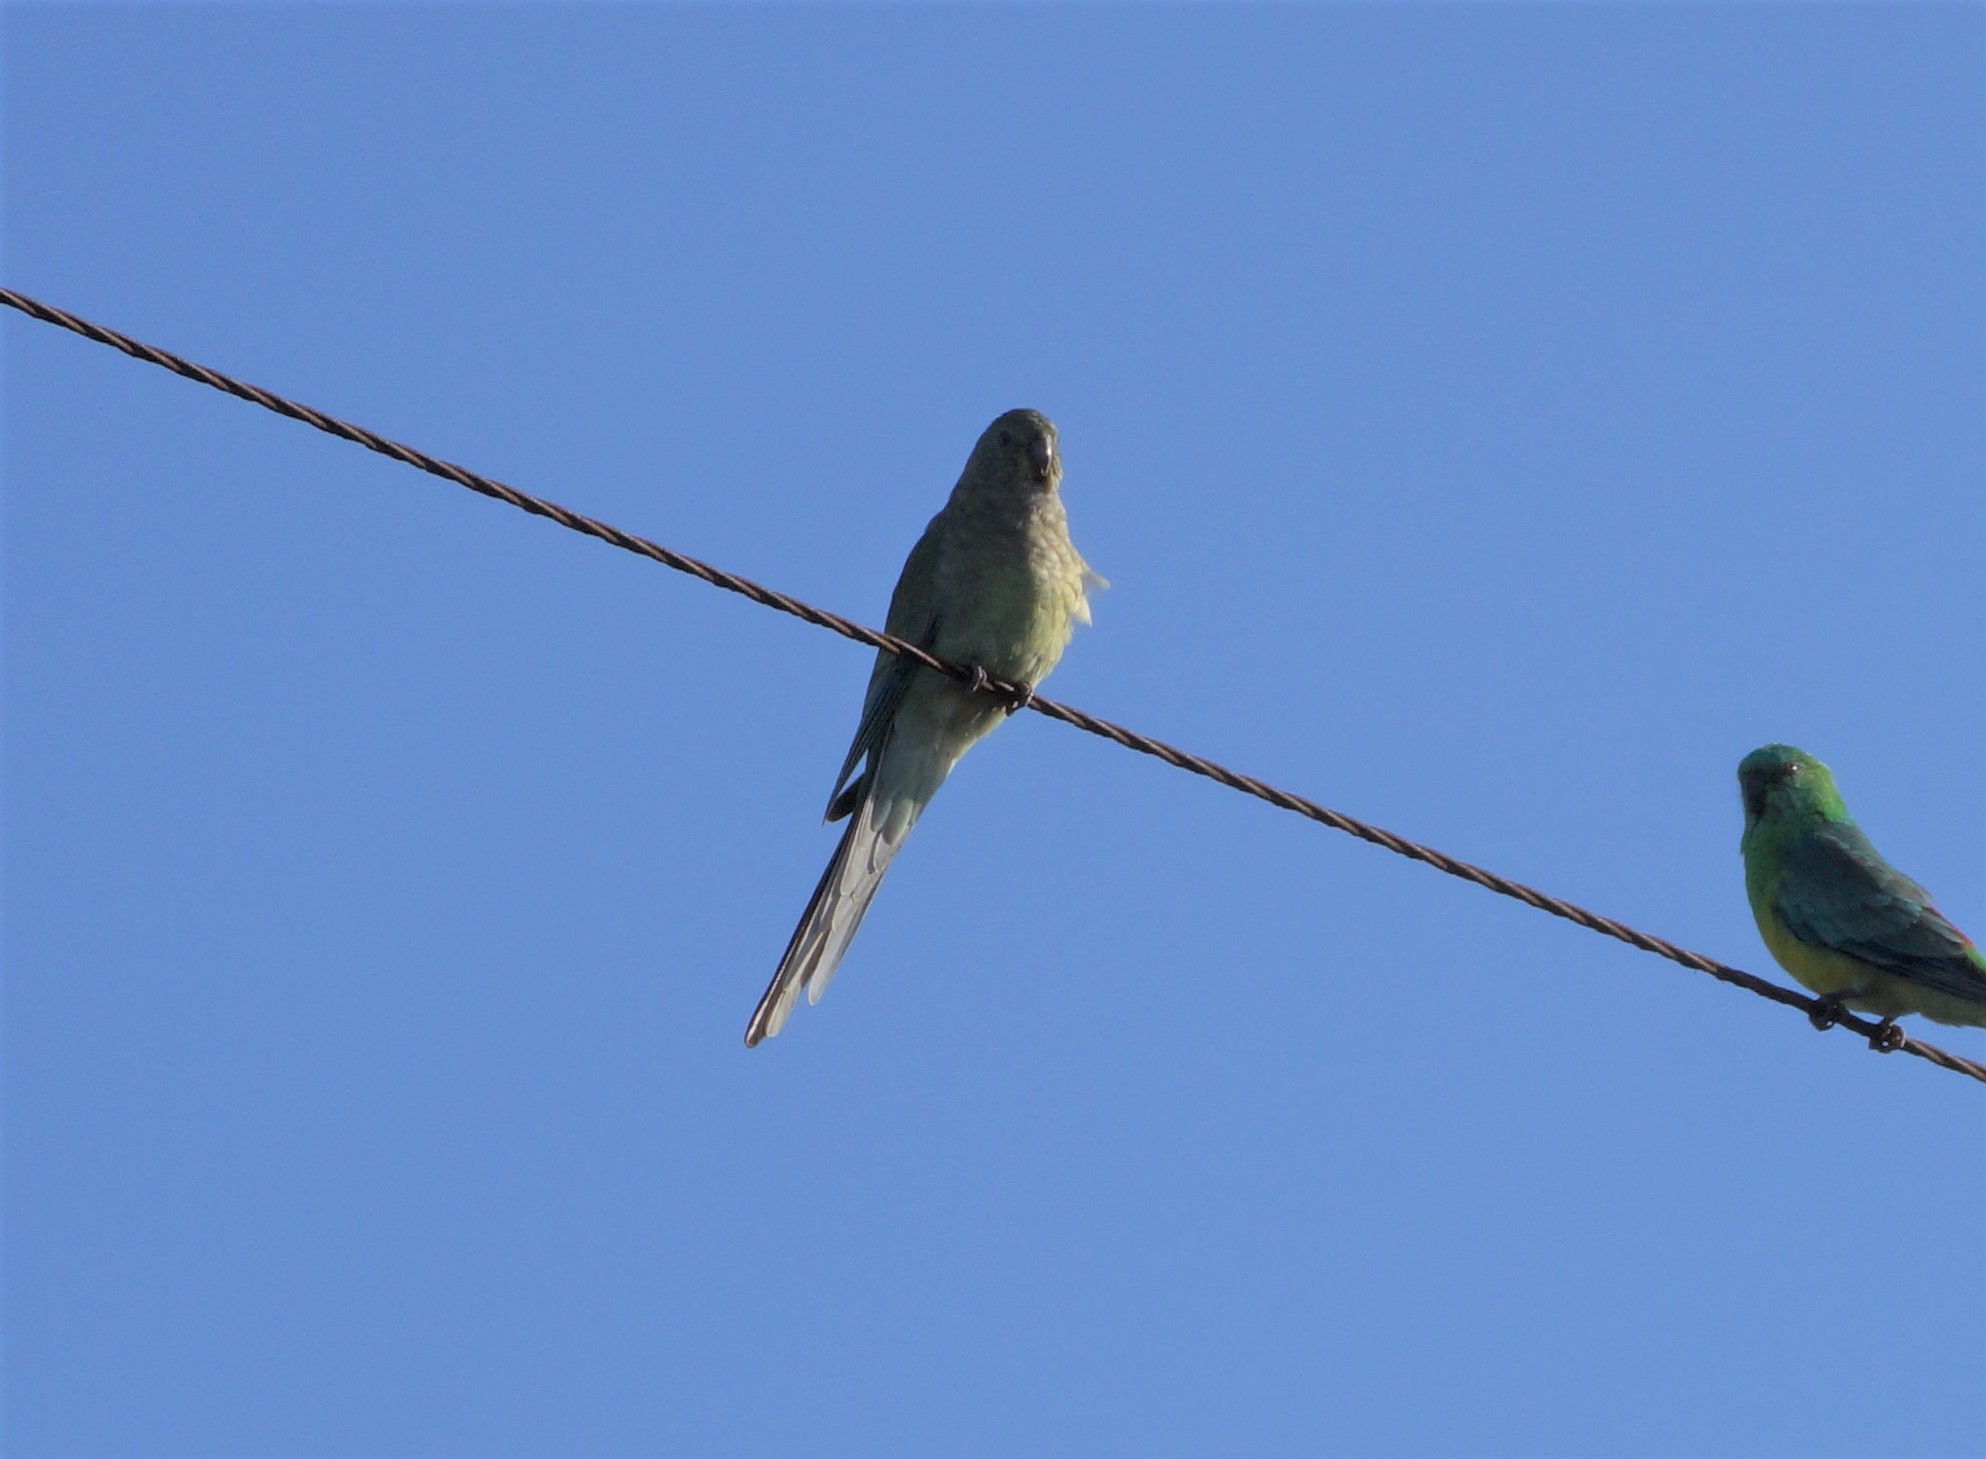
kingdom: Animalia
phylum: Chordata
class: Aves
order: Psittaciformes
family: Psittacidae
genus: Psephotus
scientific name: Psephotus haematonotus
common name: Red-rumped parrot
